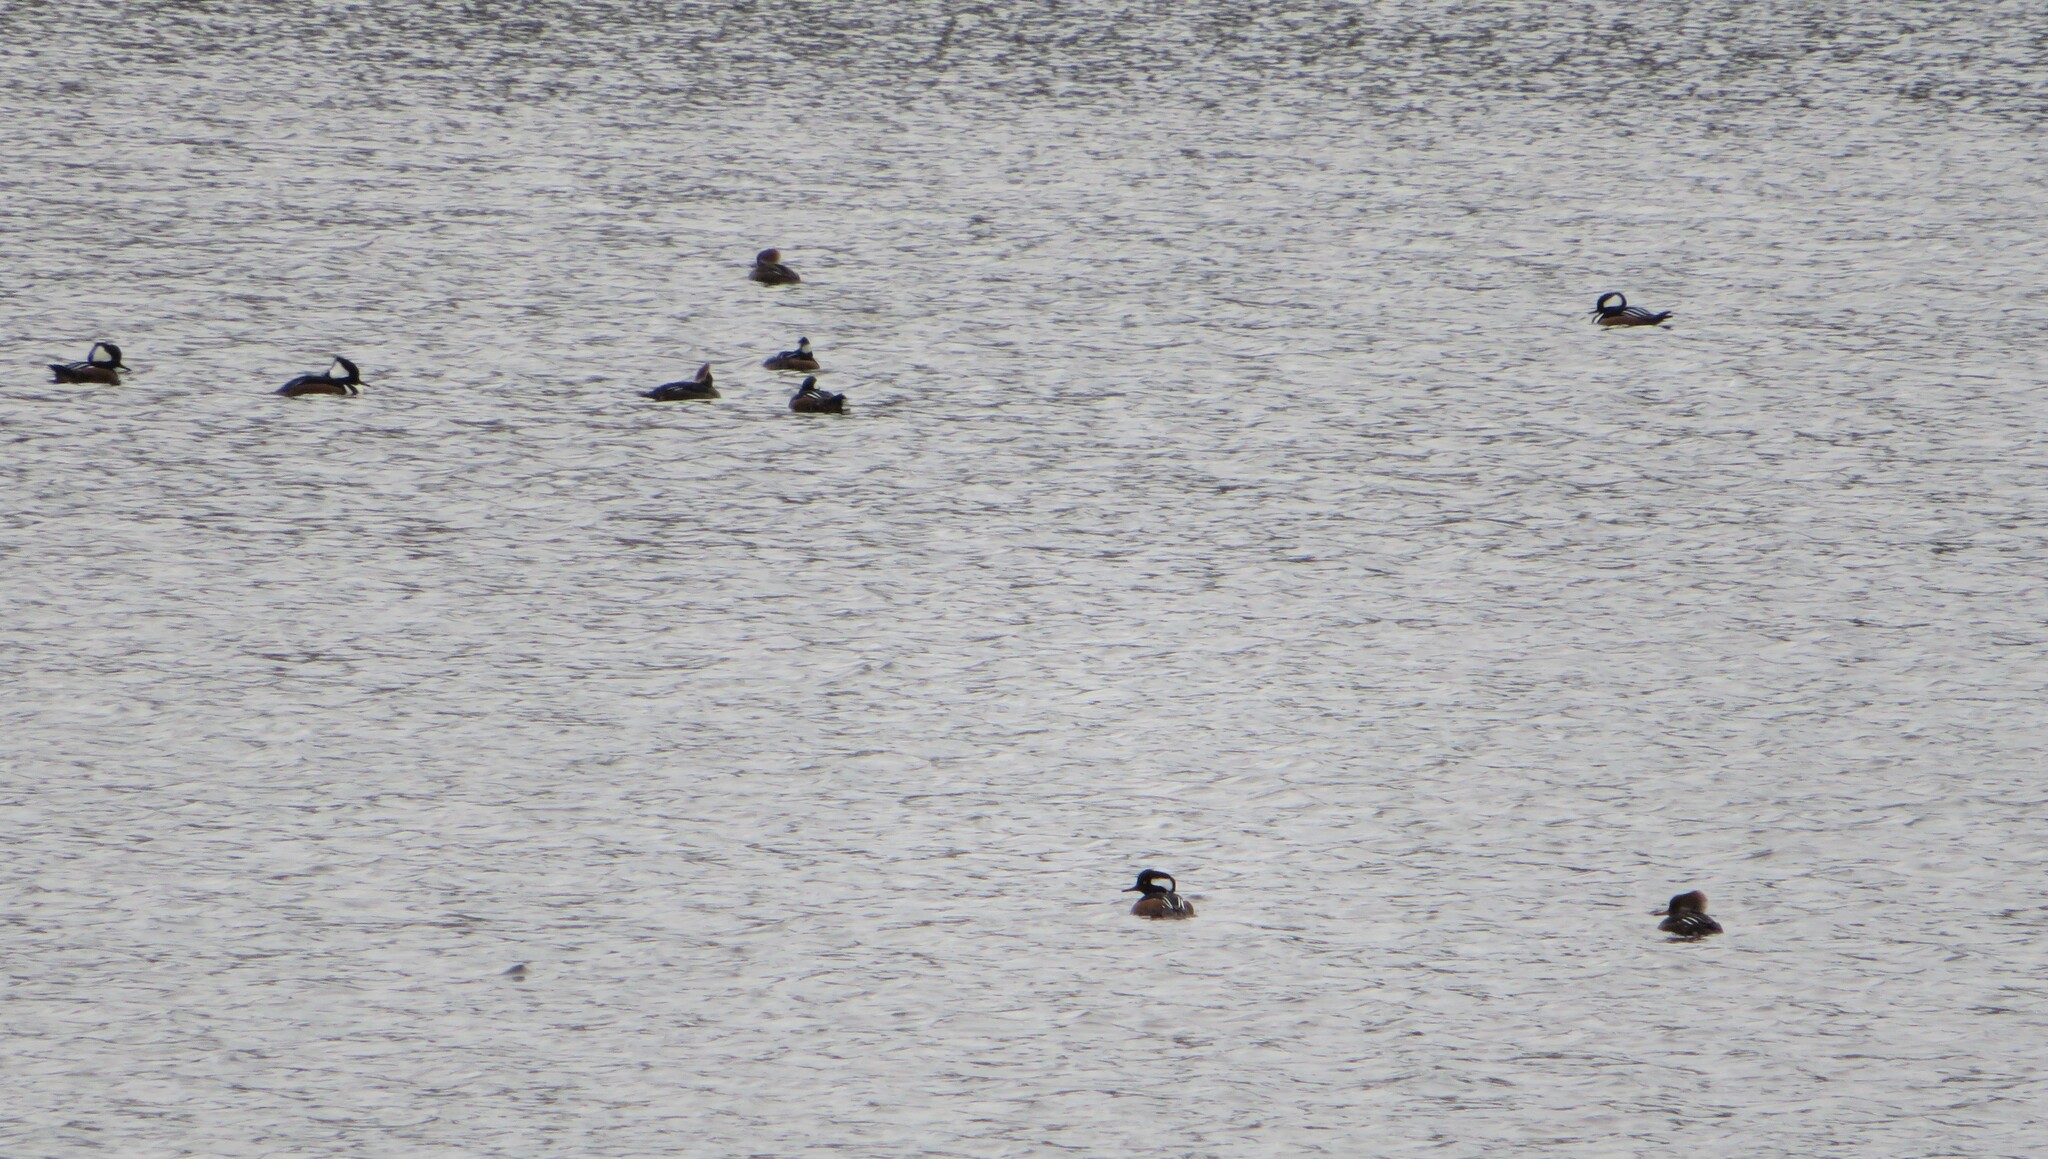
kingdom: Animalia
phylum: Chordata
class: Aves
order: Anseriformes
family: Anatidae
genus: Lophodytes
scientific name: Lophodytes cucullatus
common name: Hooded merganser
